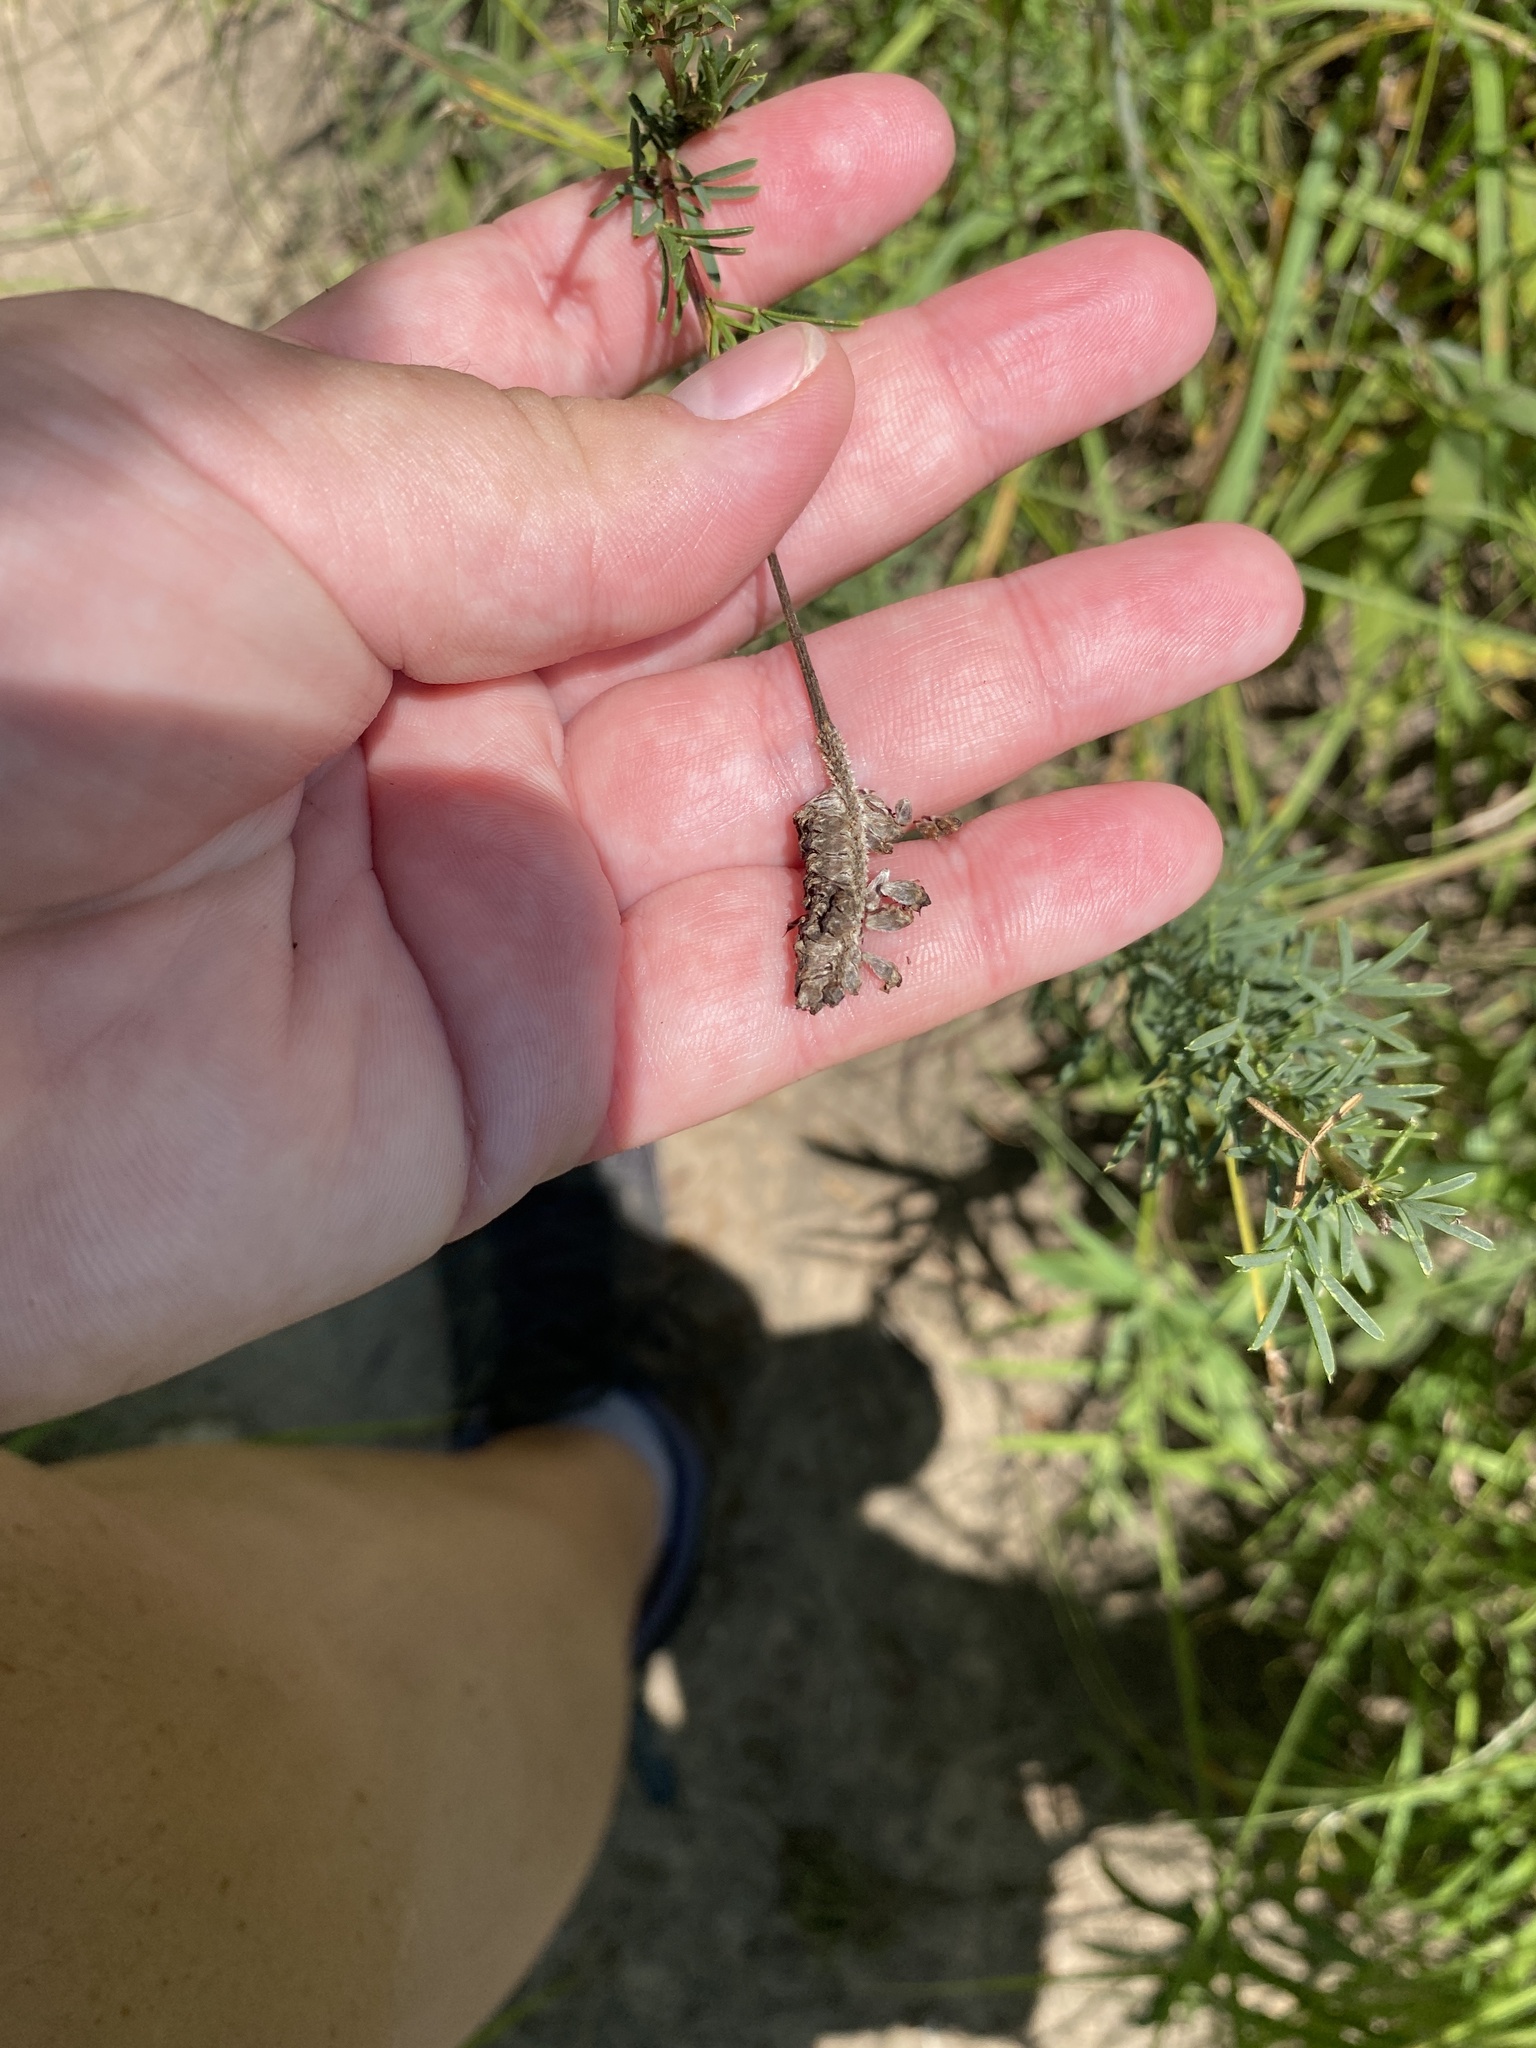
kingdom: Plantae
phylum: Tracheophyta
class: Magnoliopsida
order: Fabales
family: Fabaceae
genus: Dalea
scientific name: Dalea purpurea
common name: Purple prairie-clover
